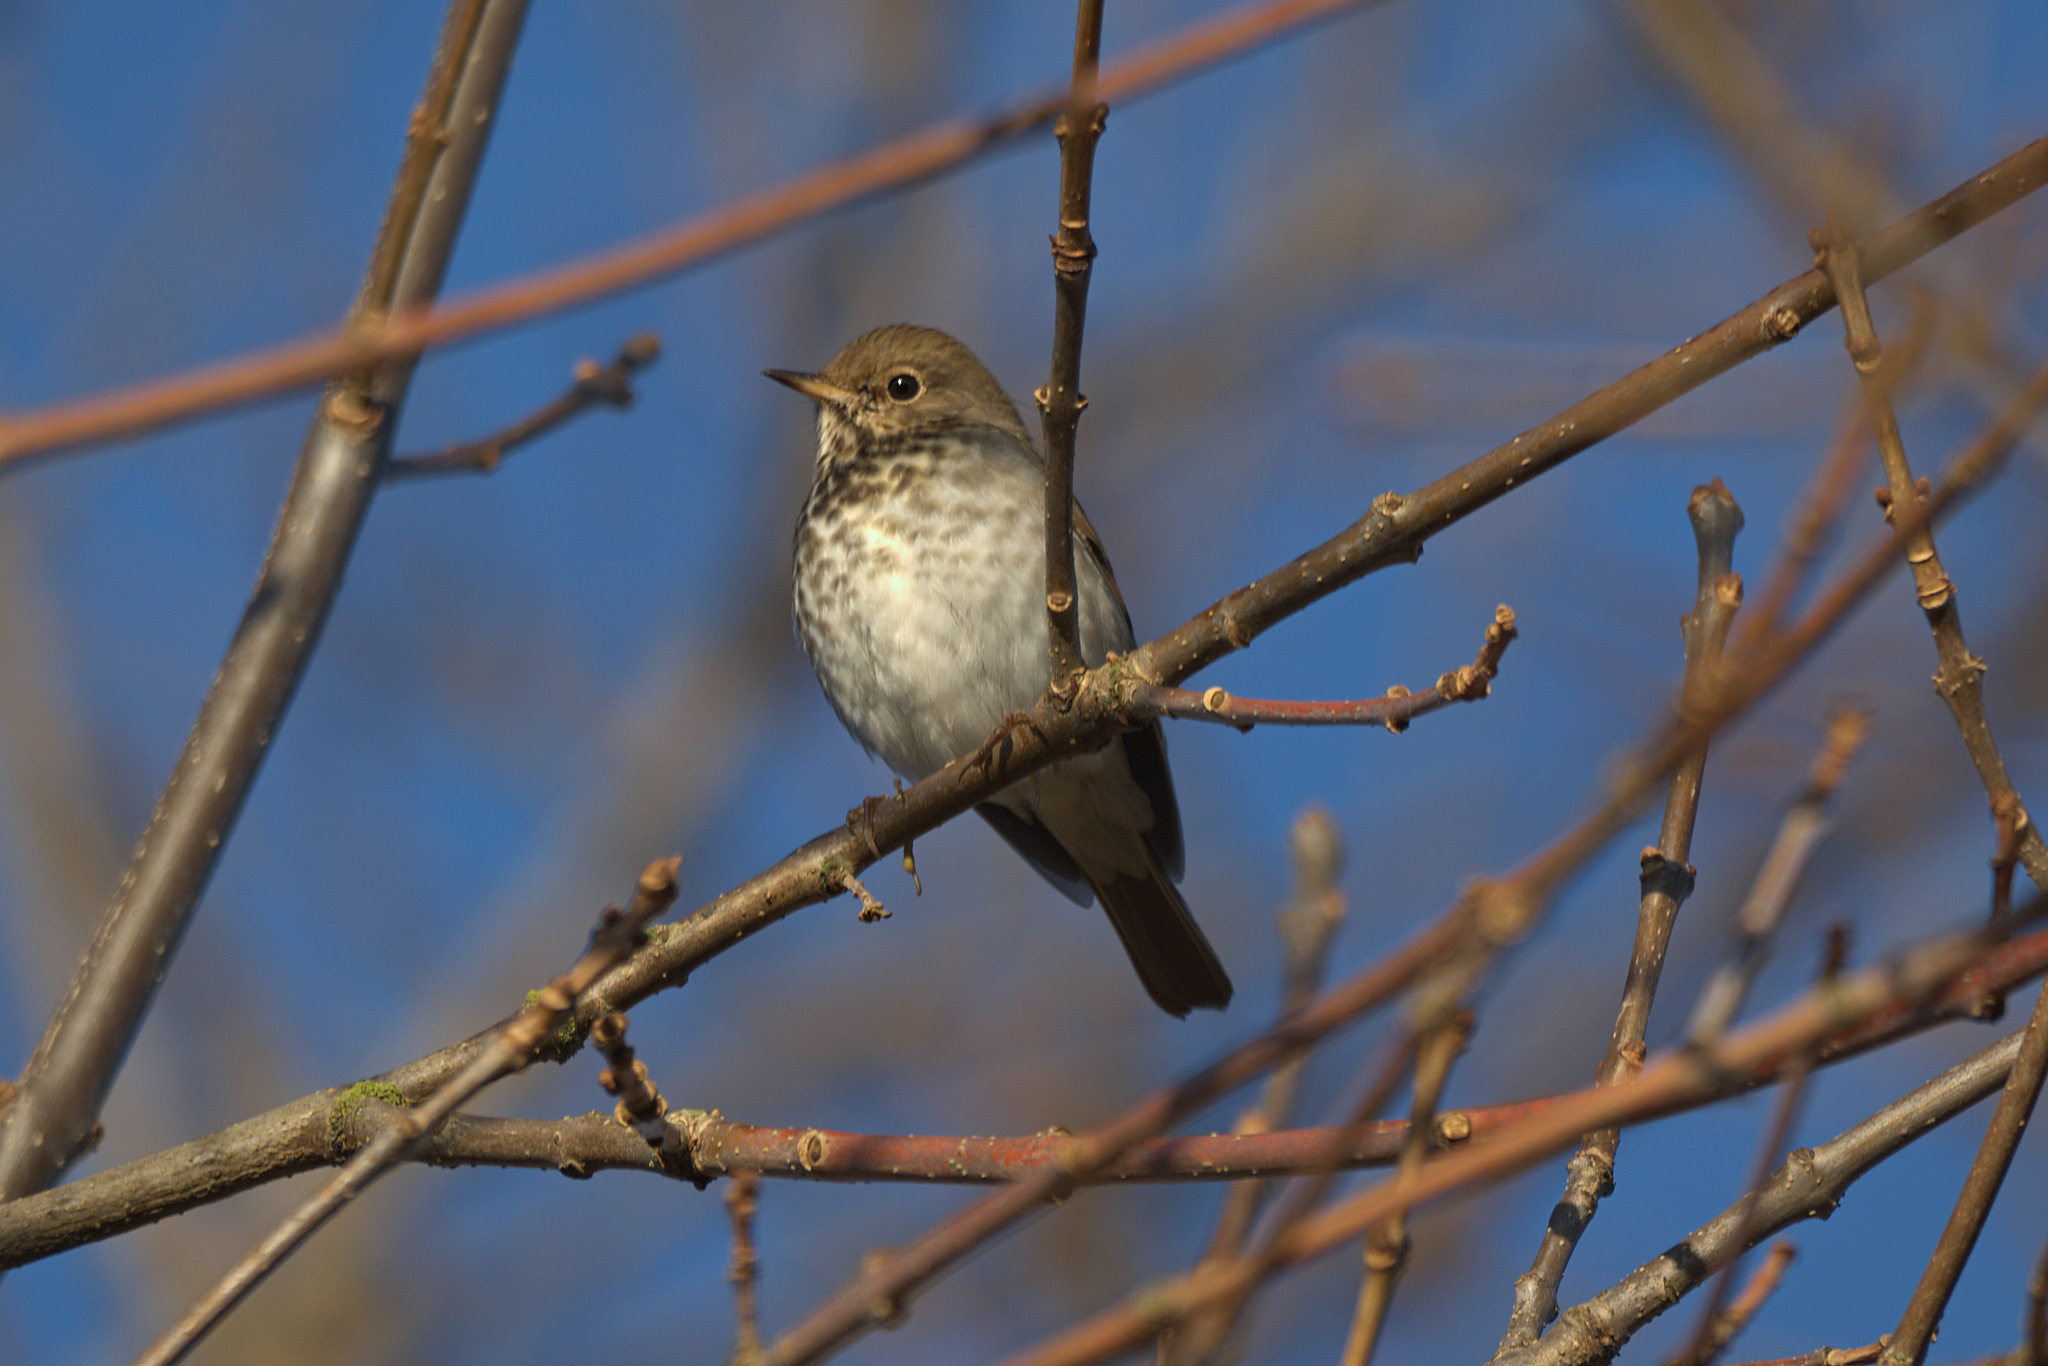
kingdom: Animalia
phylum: Chordata
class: Aves
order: Passeriformes
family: Turdidae
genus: Catharus
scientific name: Catharus guttatus
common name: Hermit thrush
